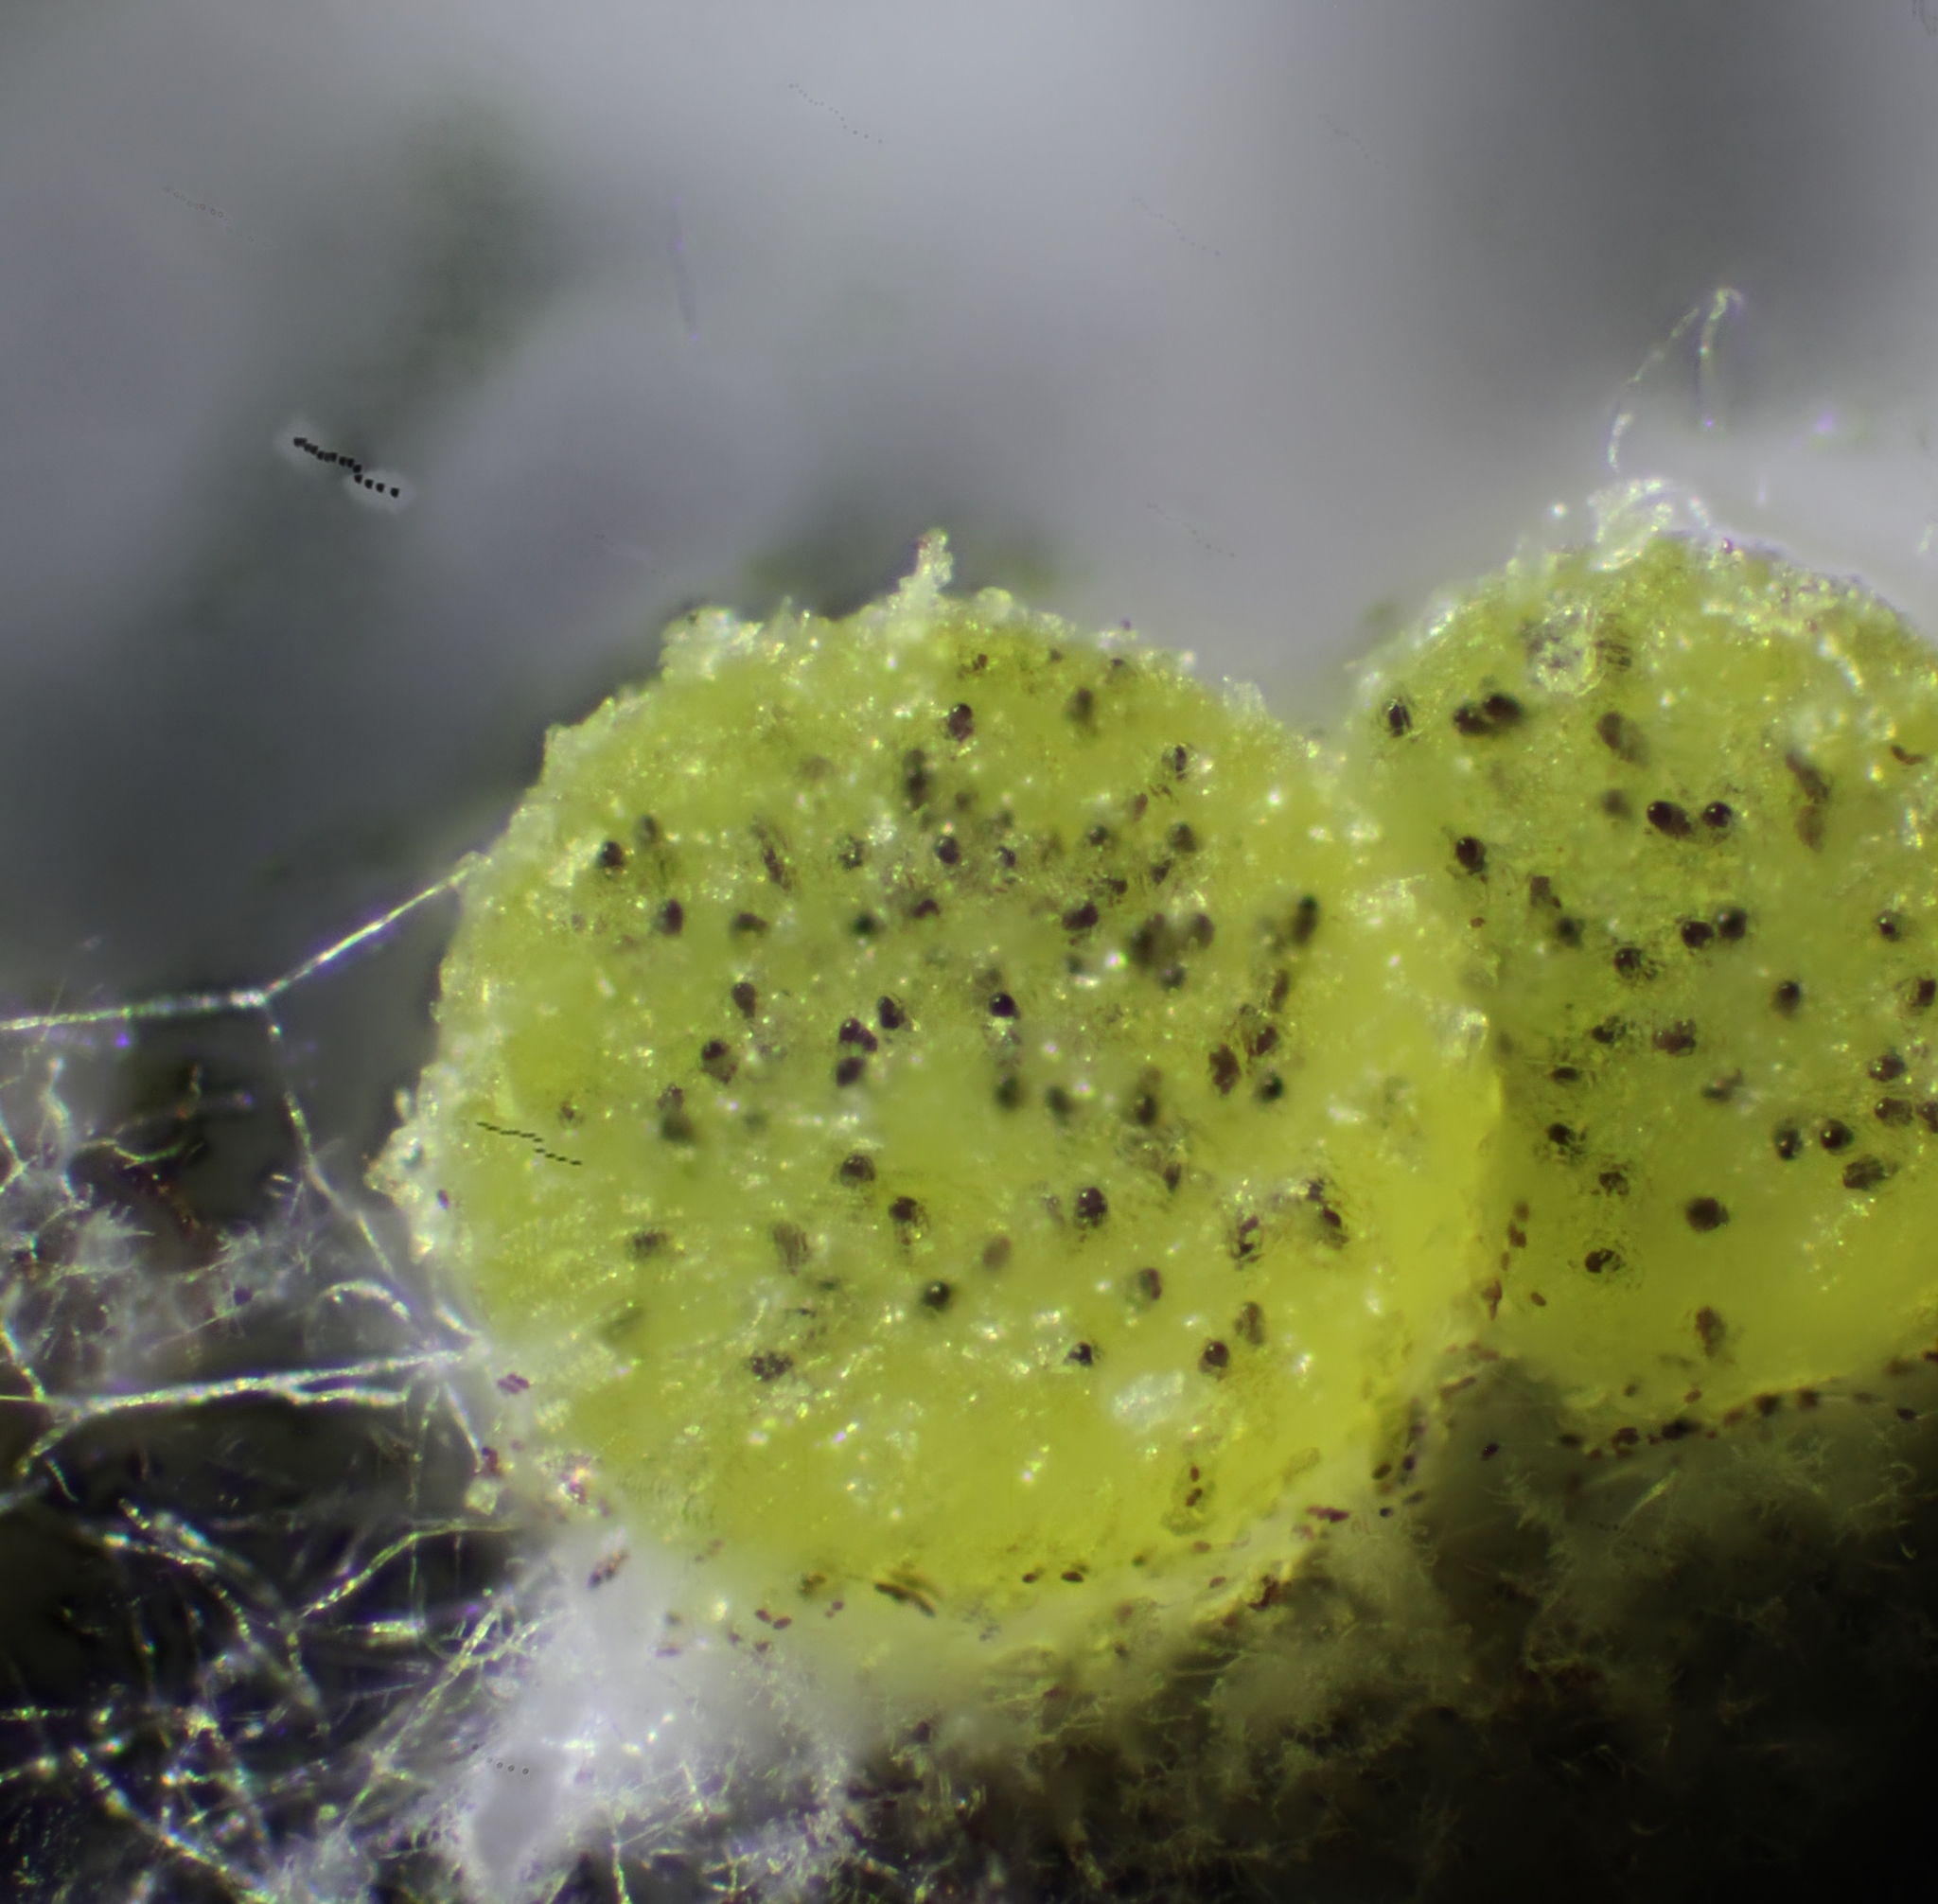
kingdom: Fungi
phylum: Ascomycota
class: Pezizomycetes
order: Pezizales
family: Ascobolaceae
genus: Ascobolus
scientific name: Ascobolus lineolatus
